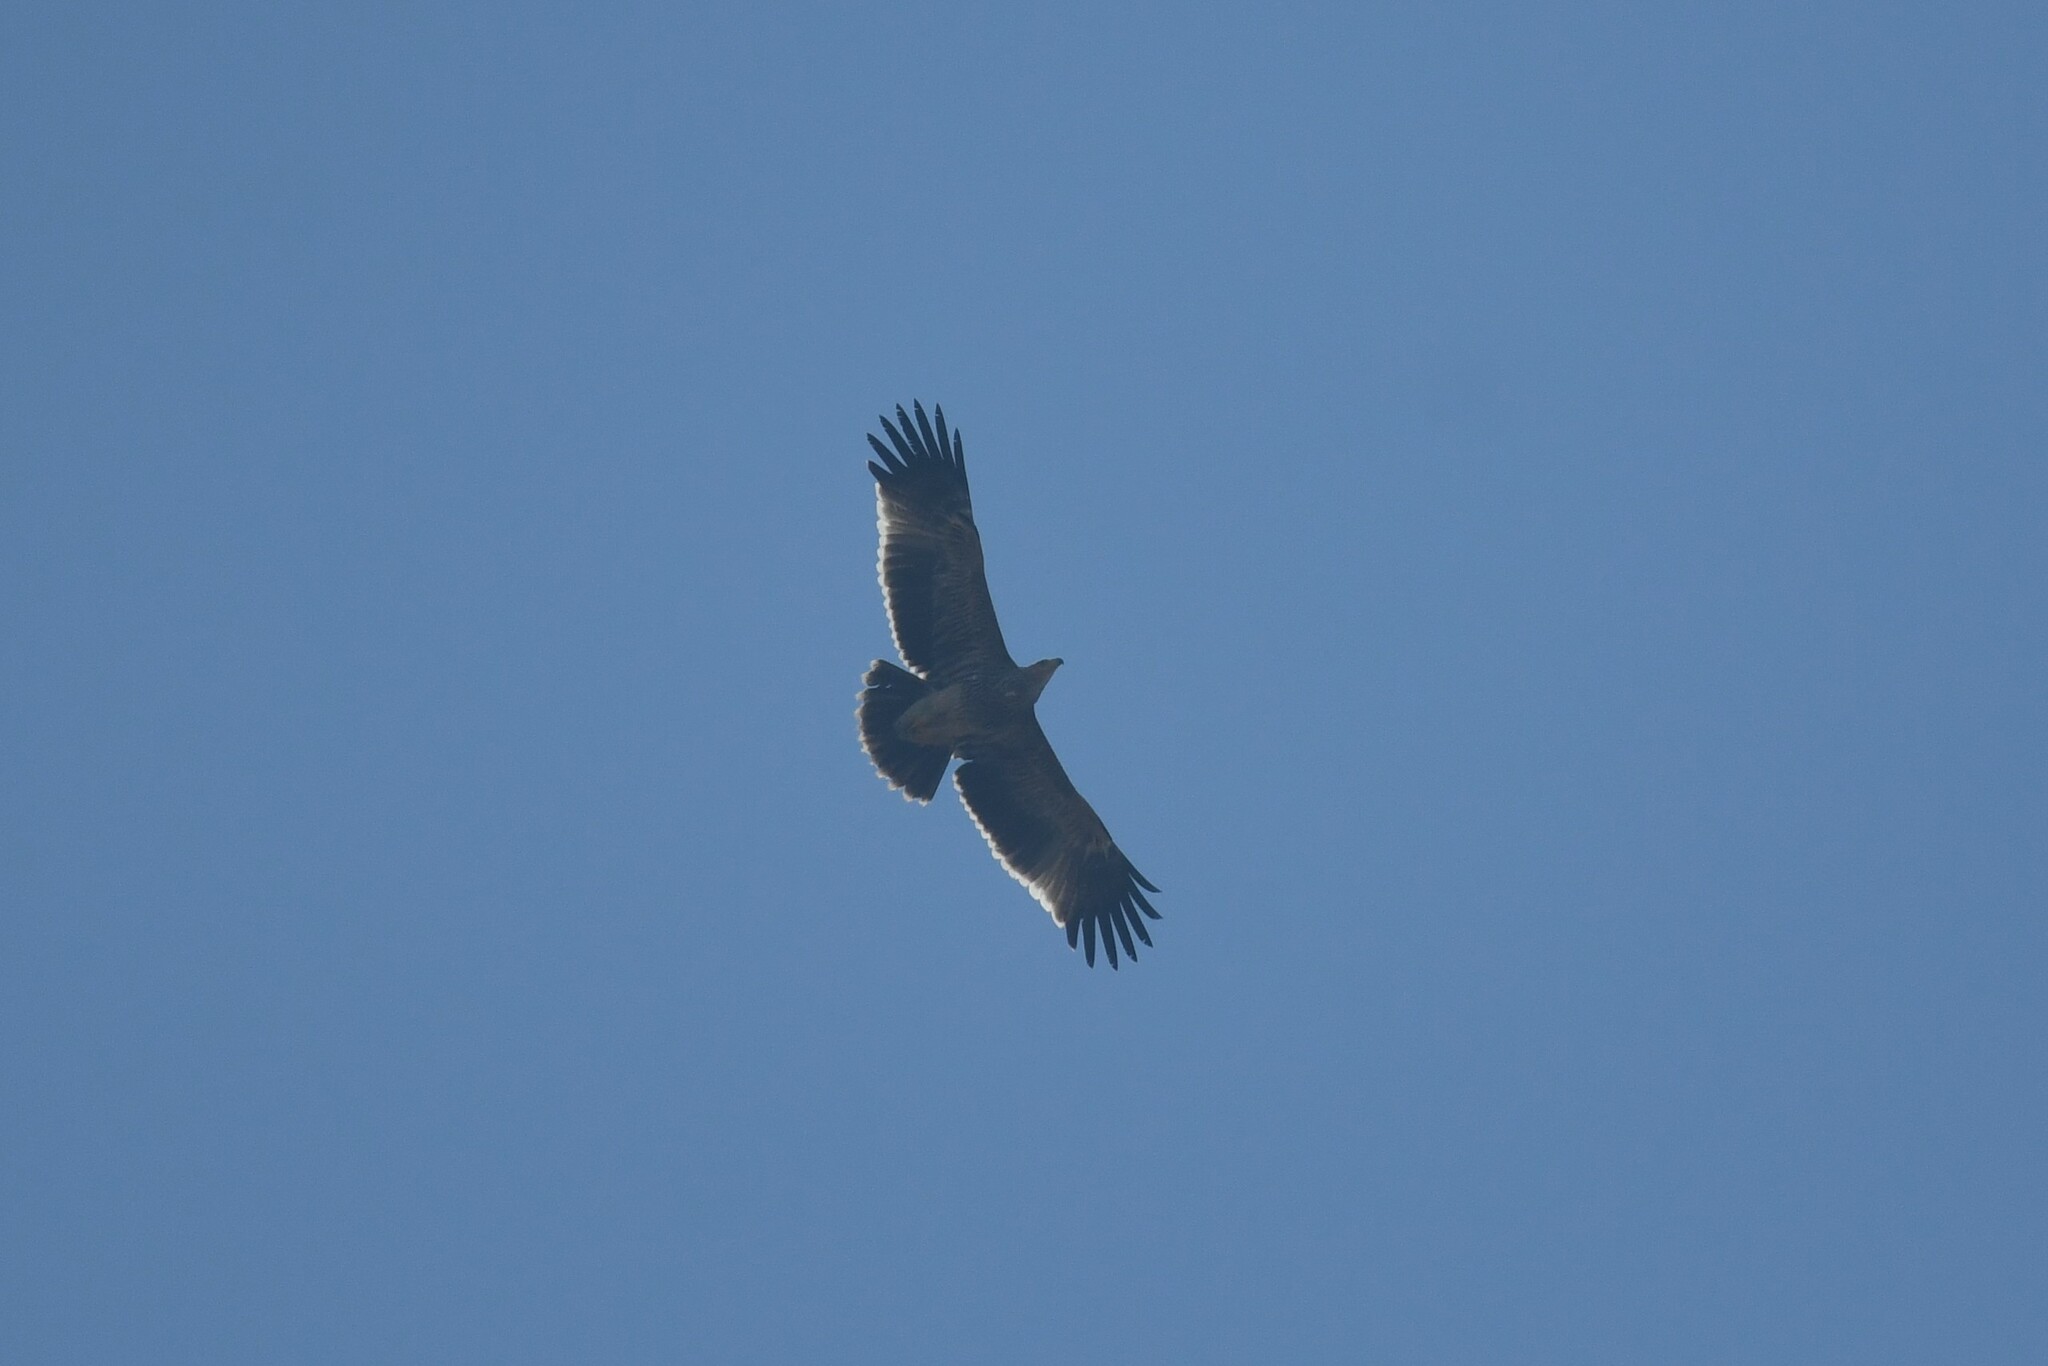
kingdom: Animalia
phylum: Chordata
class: Aves
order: Accipitriformes
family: Accipitridae
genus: Aquila
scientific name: Aquila heliaca
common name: Eastern imperial eagle
